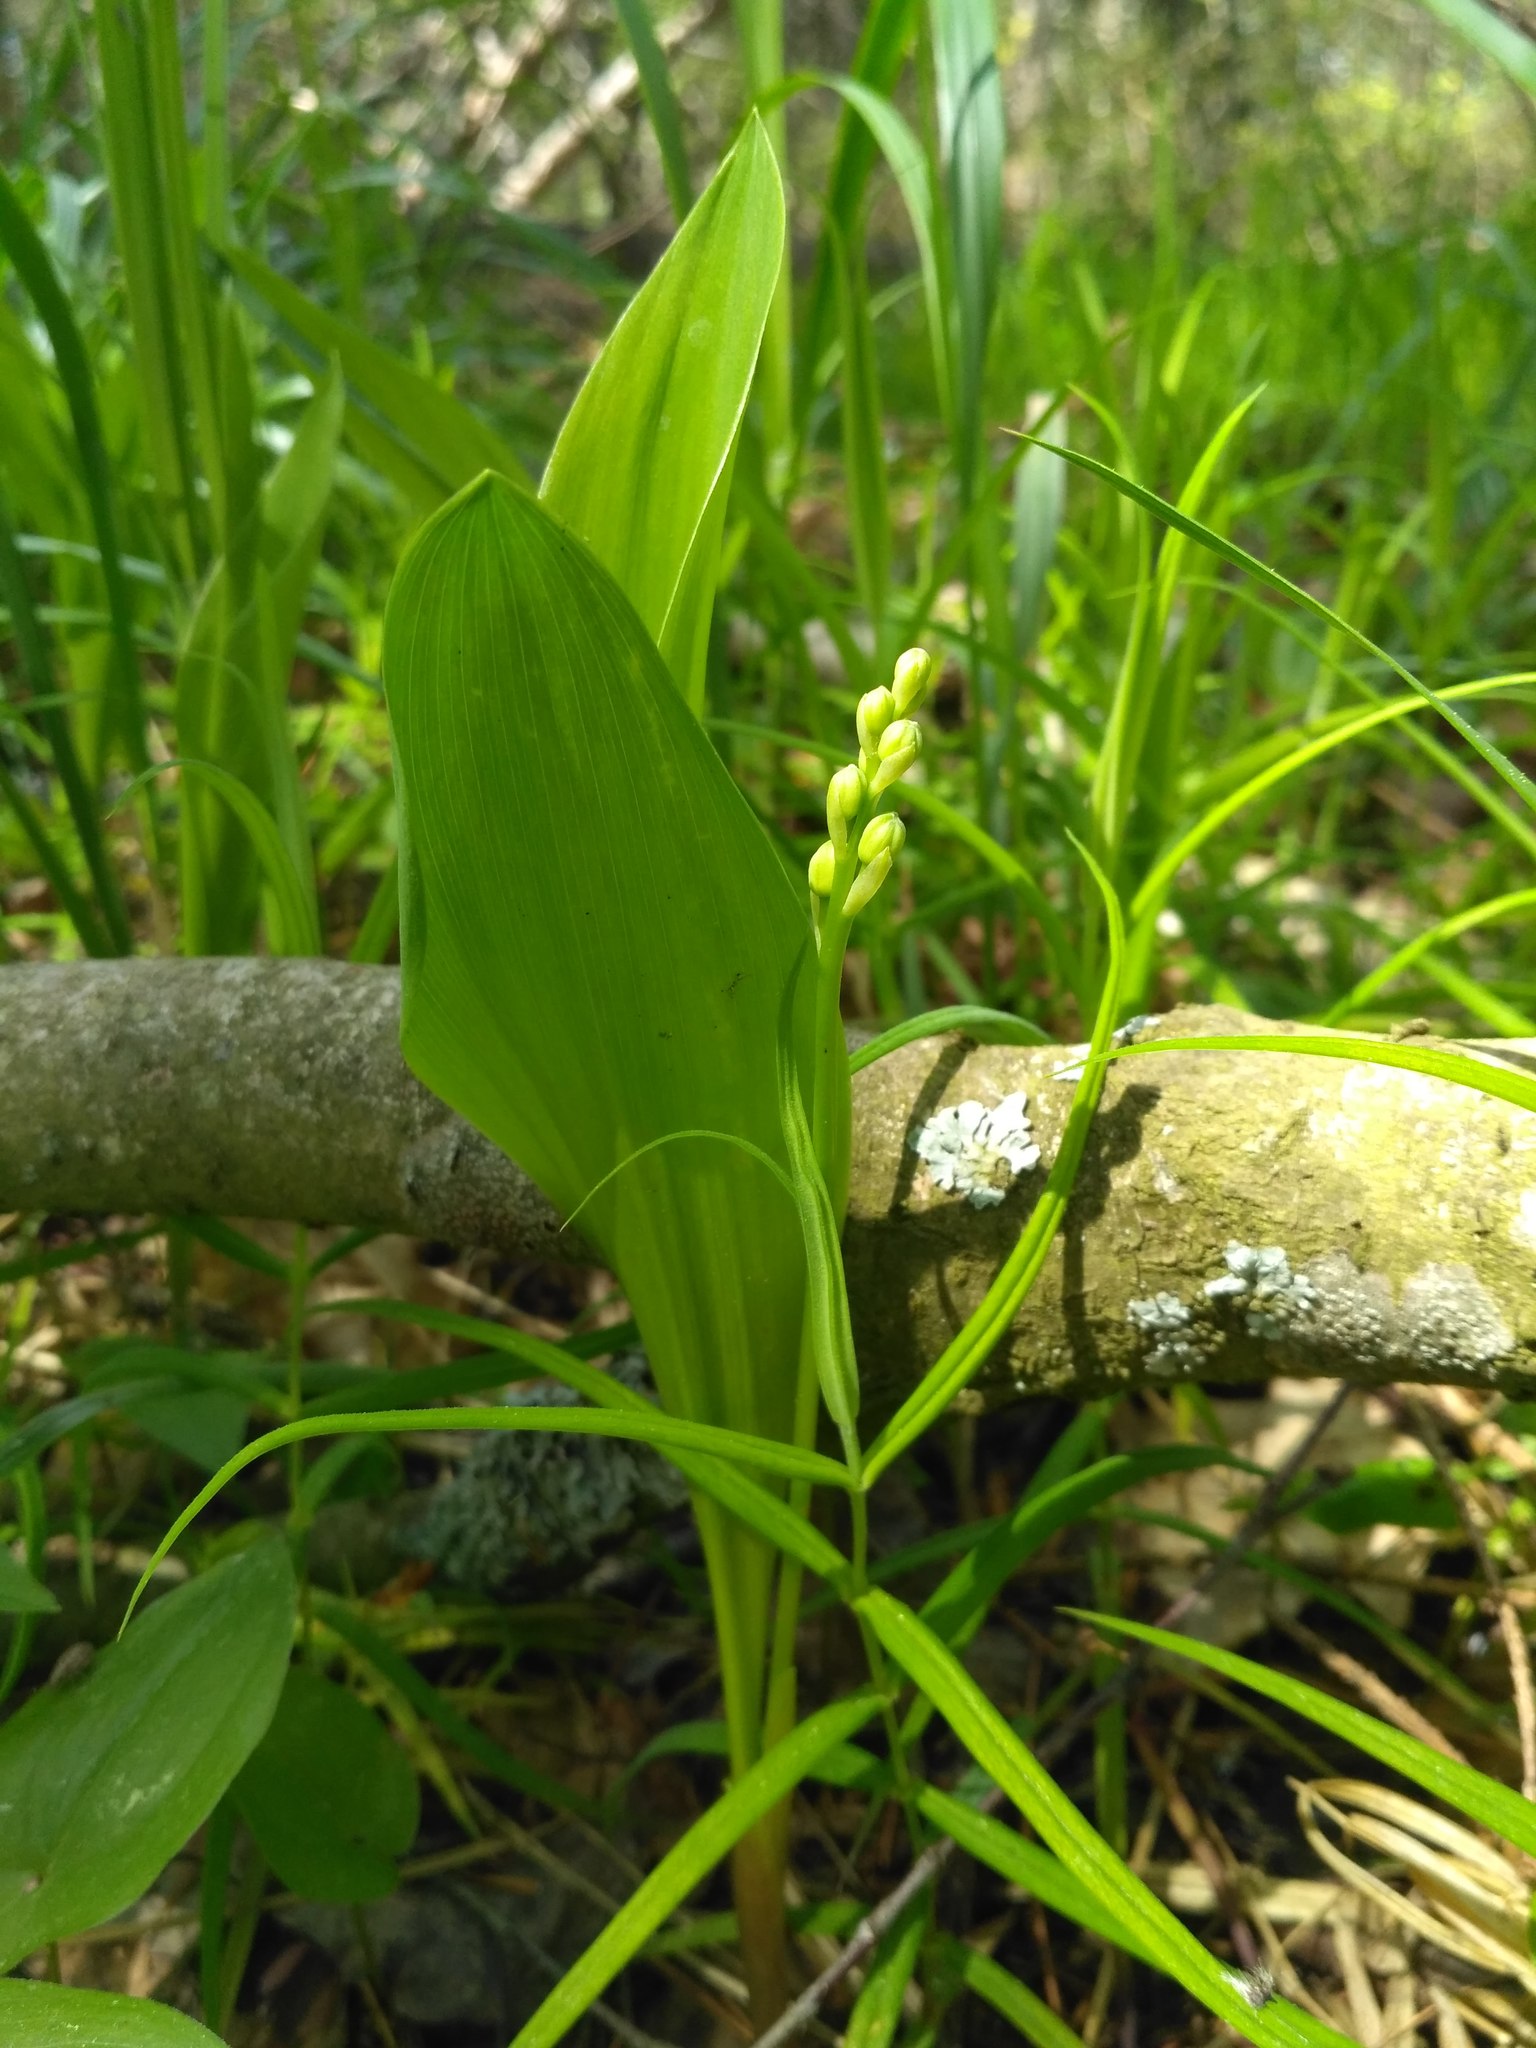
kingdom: Plantae
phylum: Tracheophyta
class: Liliopsida
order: Asparagales
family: Asparagaceae
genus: Convallaria
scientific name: Convallaria majalis
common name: Lily-of-the-valley
